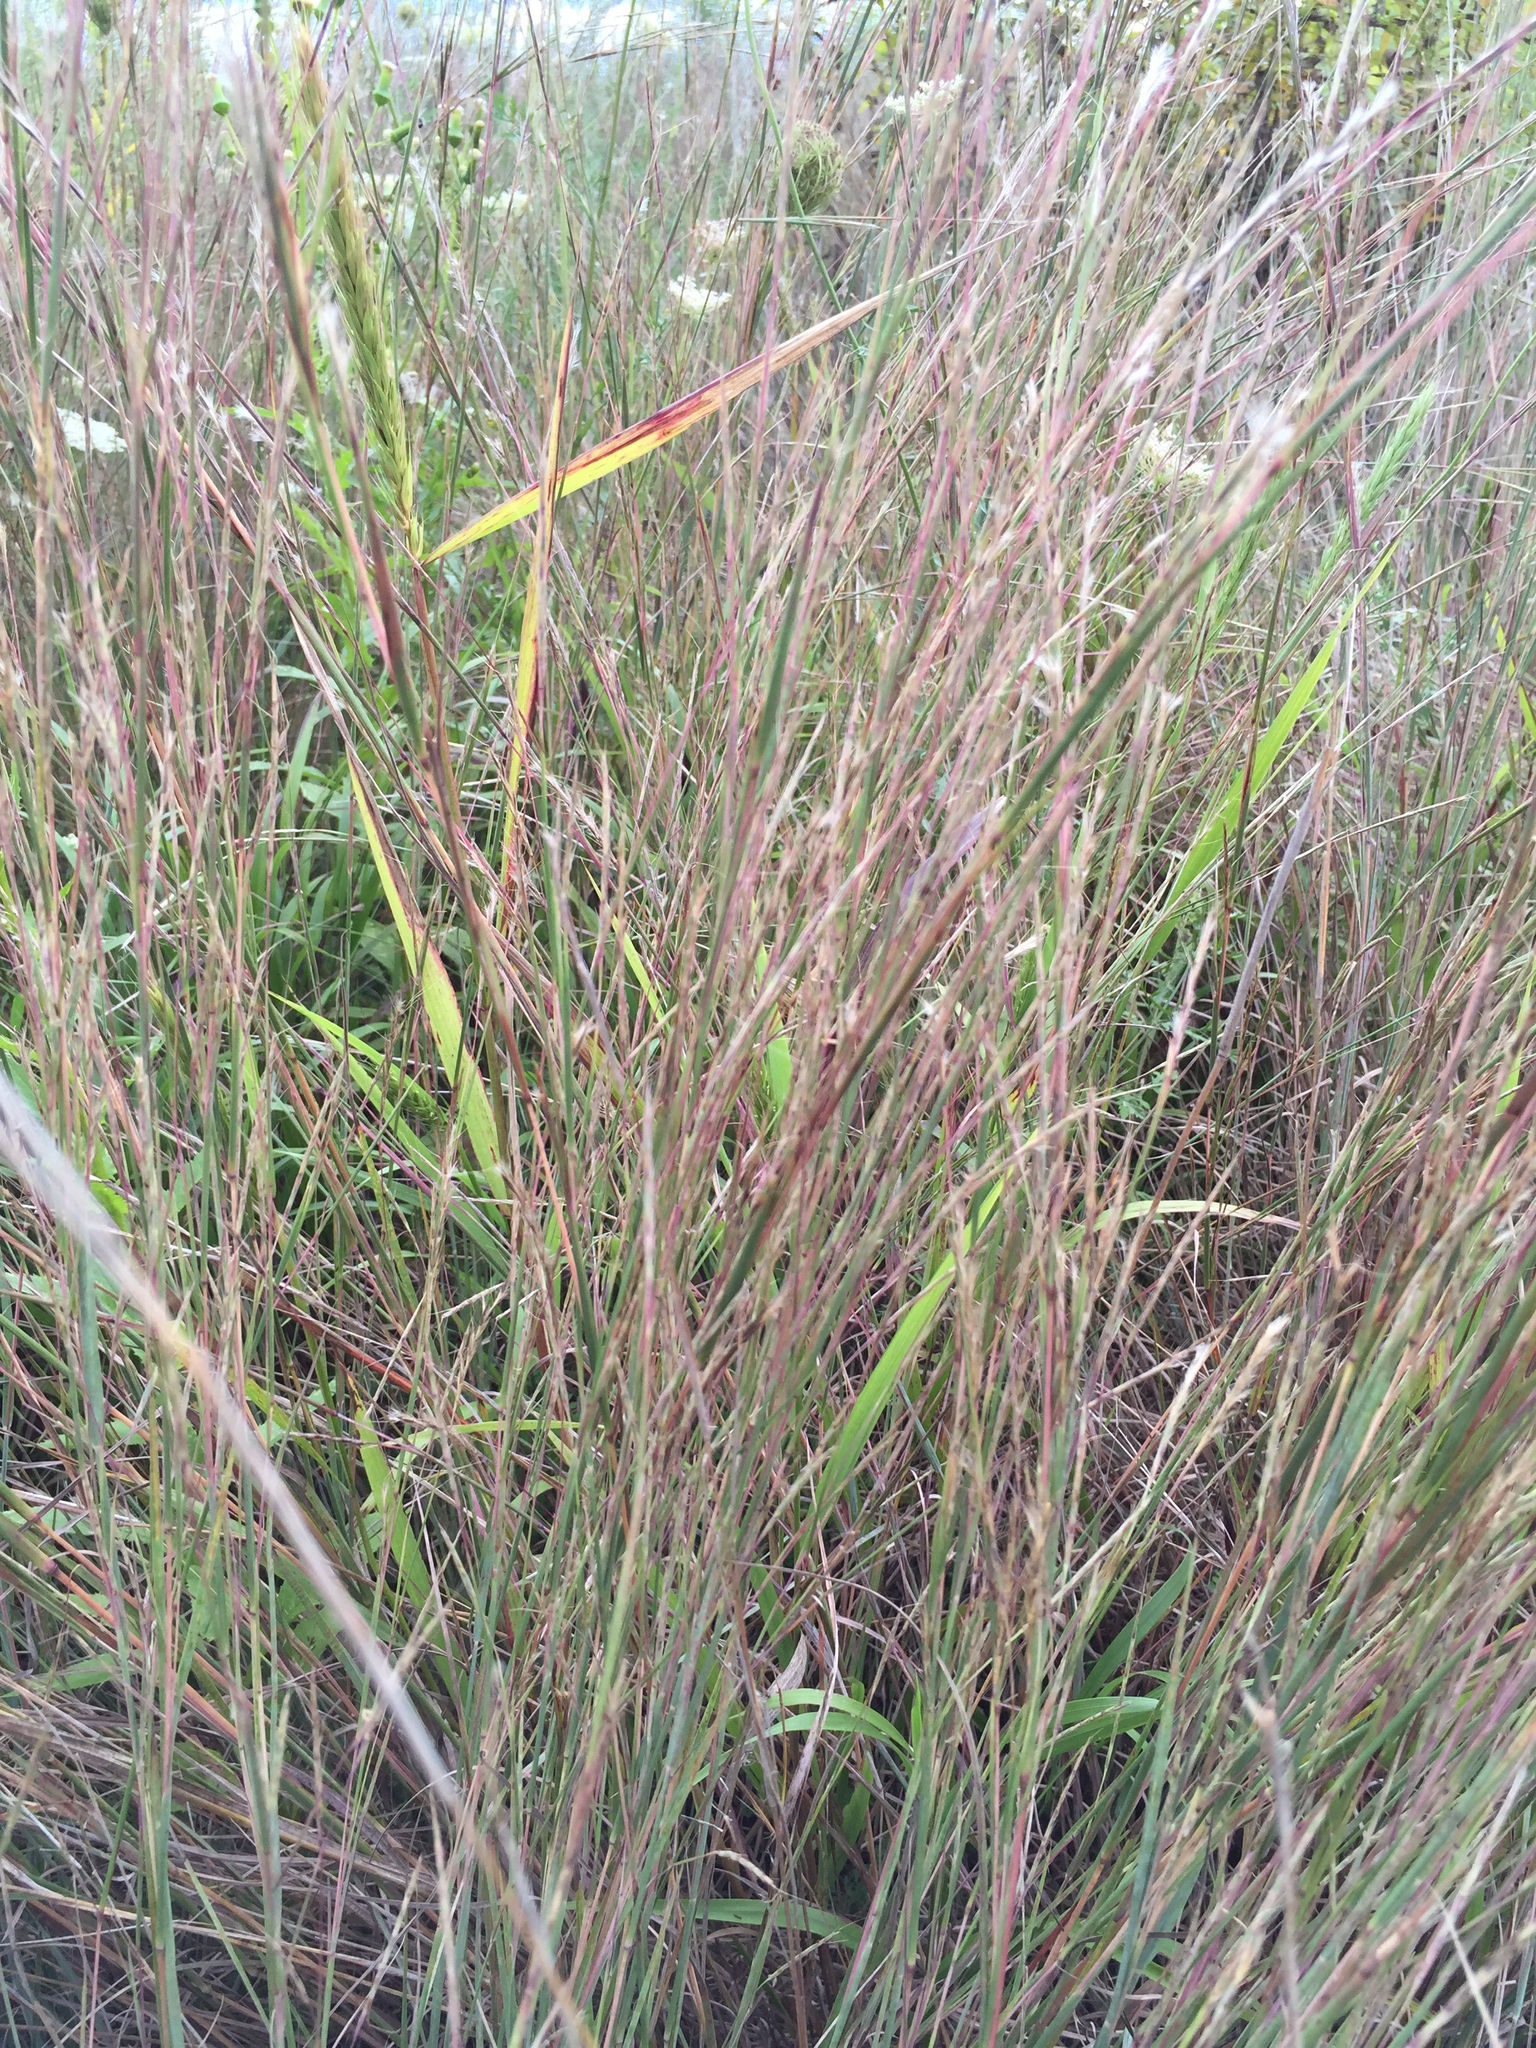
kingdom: Plantae
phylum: Tracheophyta
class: Liliopsida
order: Poales
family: Poaceae
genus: Schizachyrium
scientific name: Schizachyrium scoparium
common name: Little bluestem
